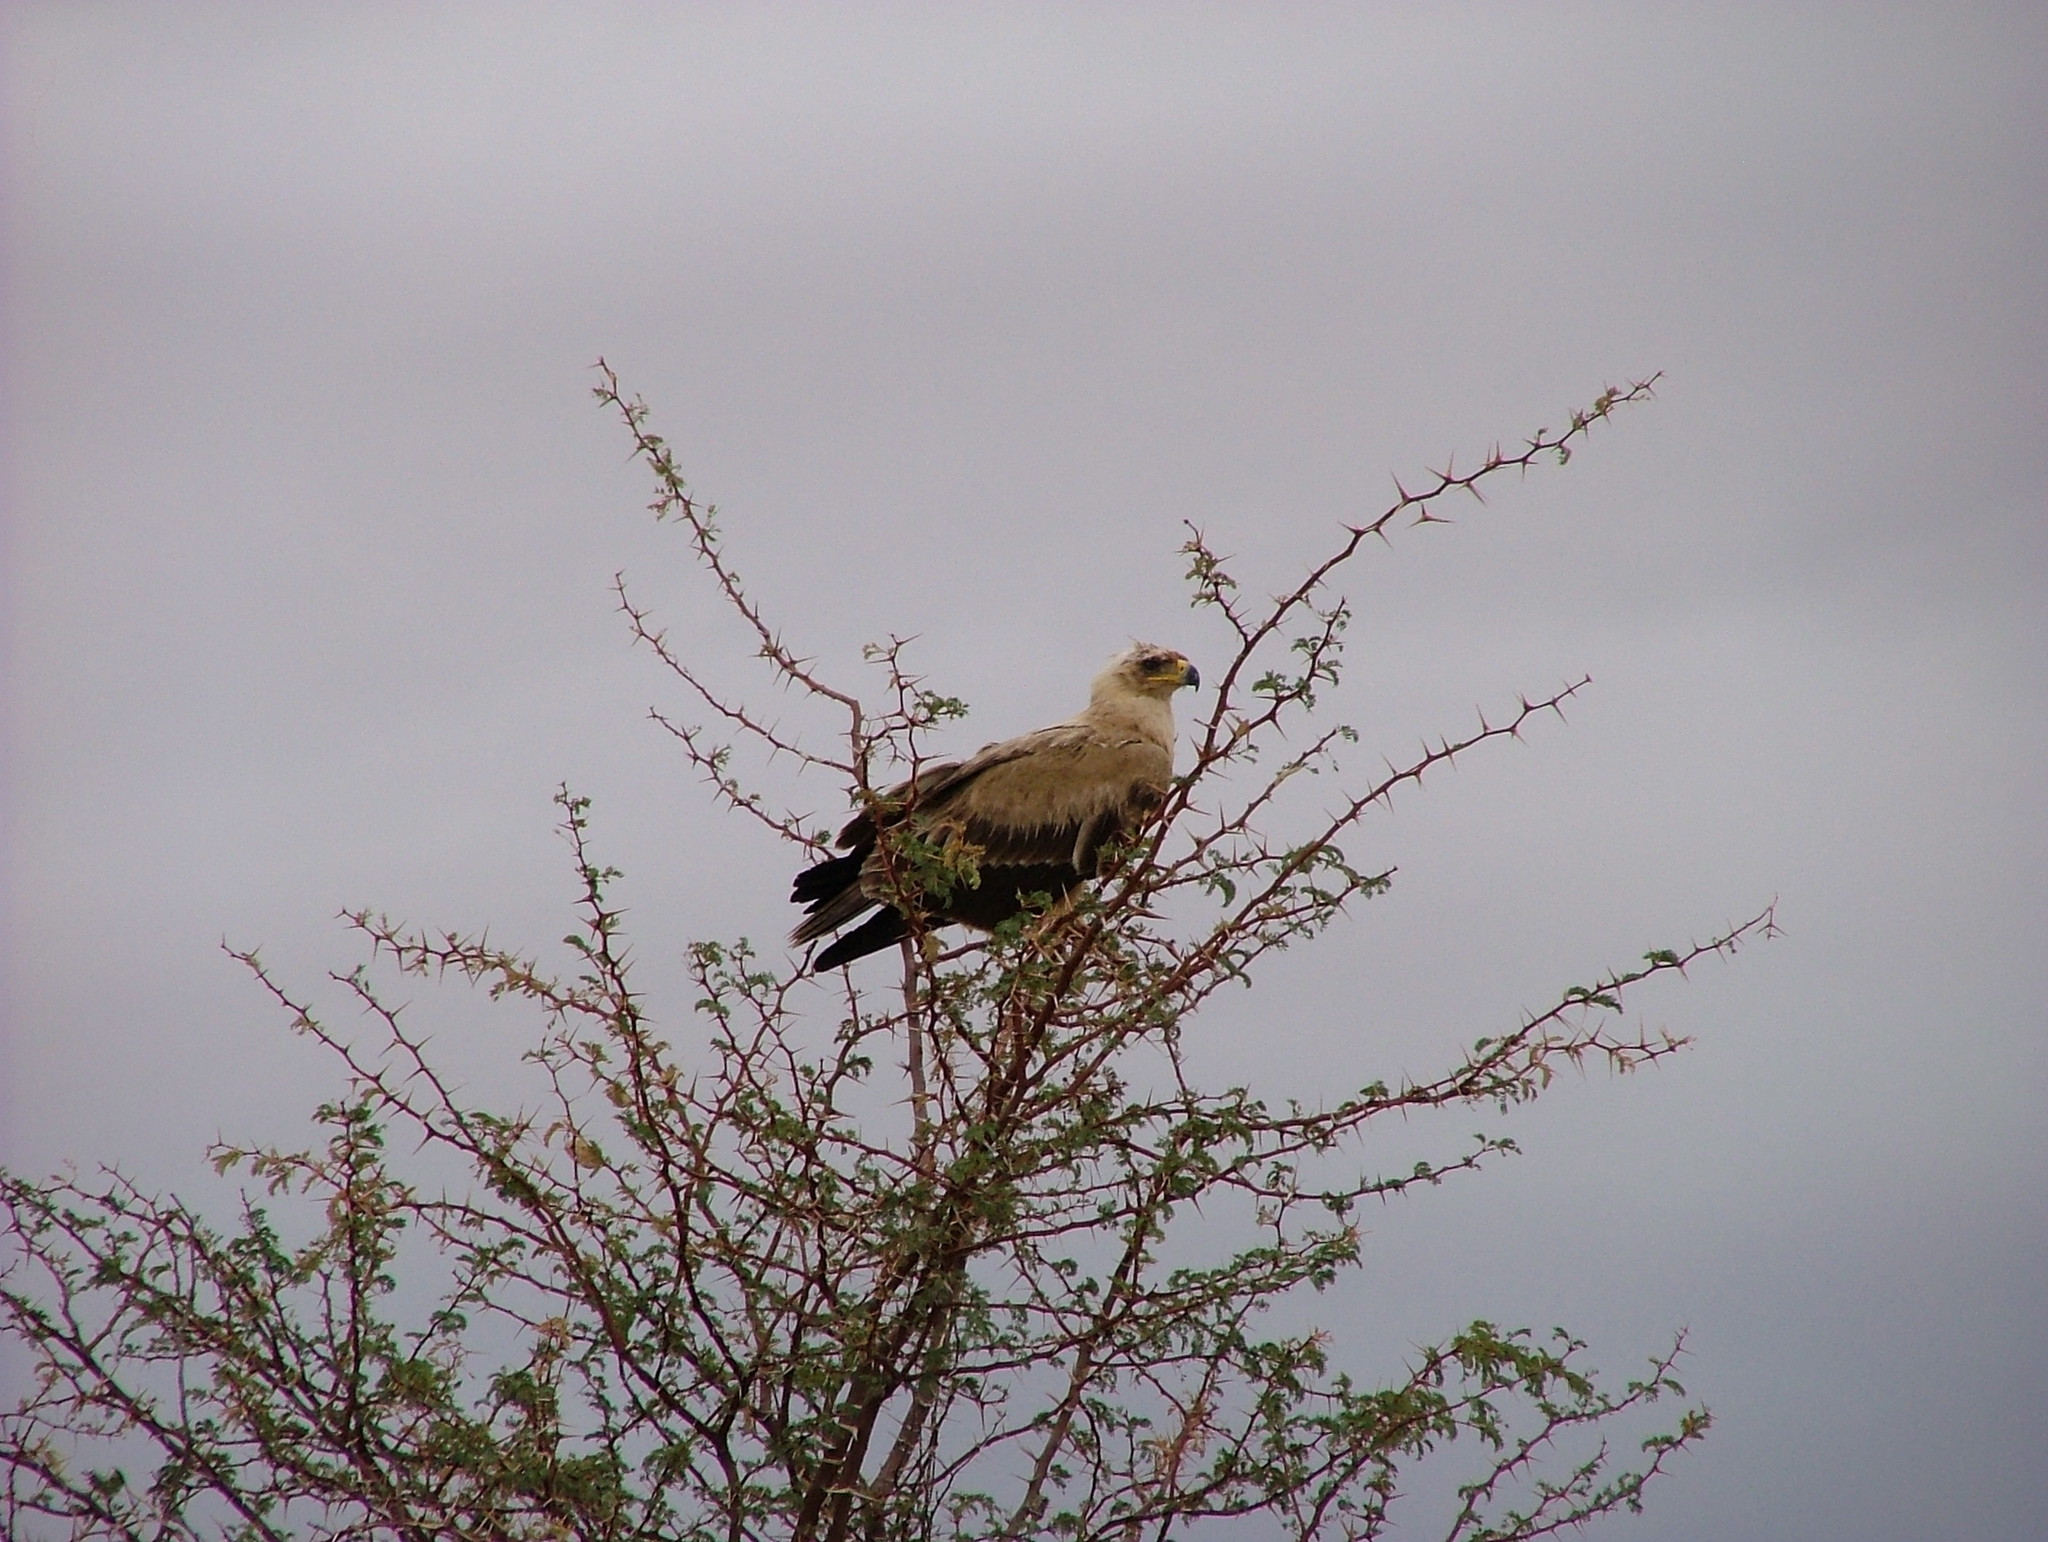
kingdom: Animalia
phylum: Chordata
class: Aves
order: Accipitriformes
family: Accipitridae
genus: Aquila
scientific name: Aquila rapax
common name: Tawny eagle
